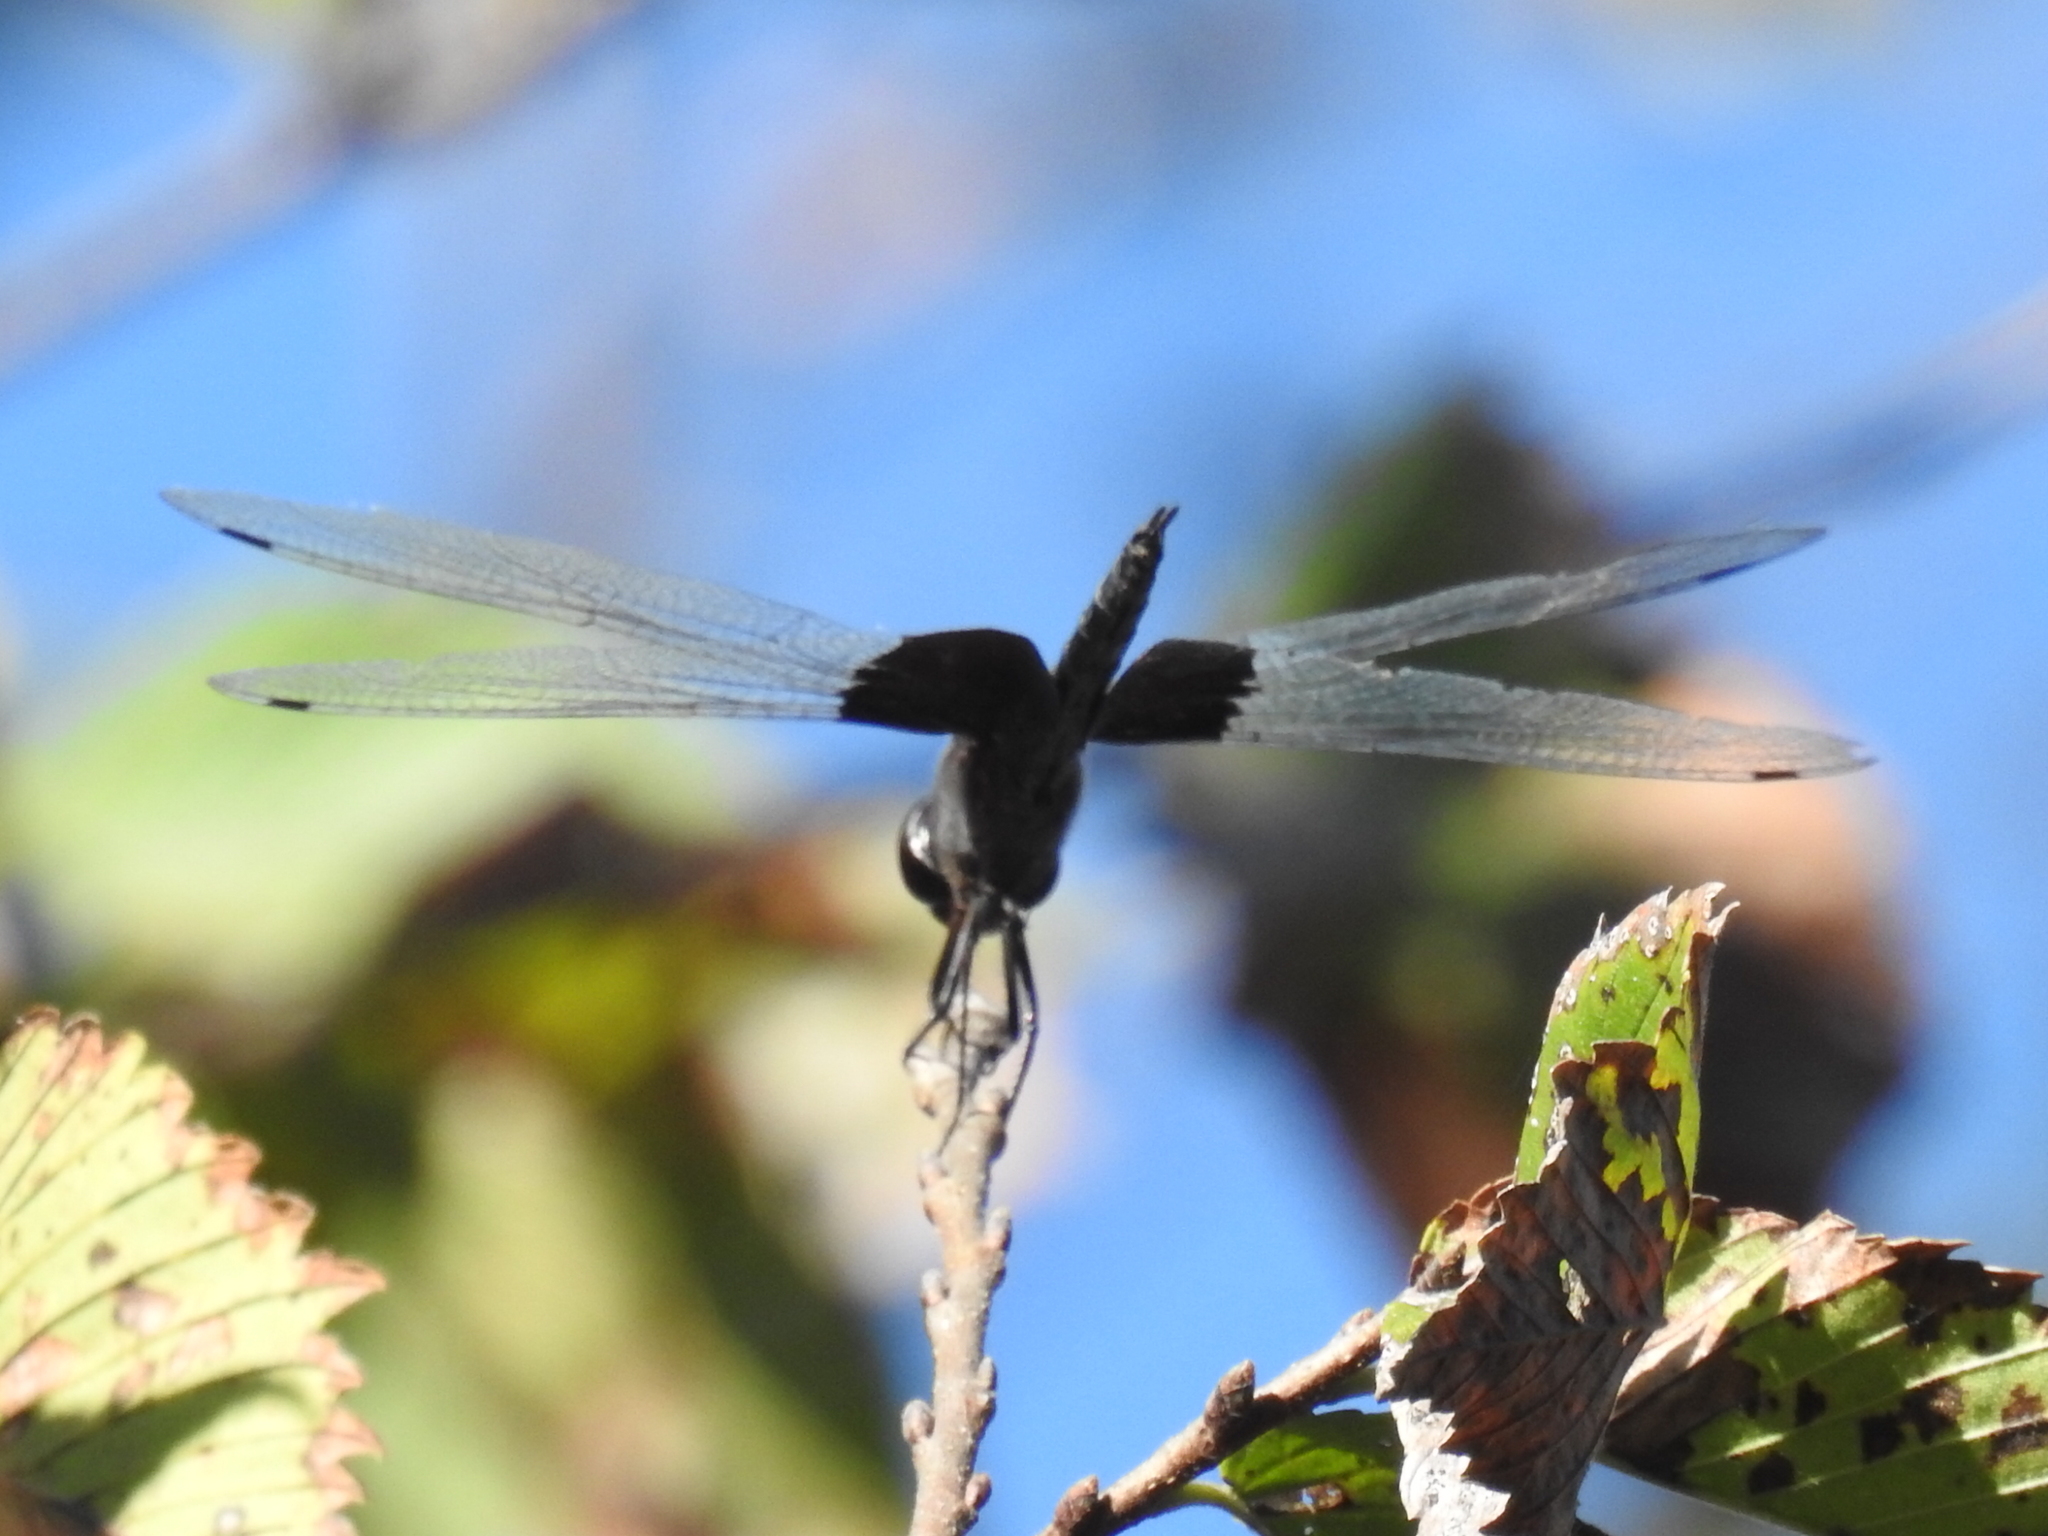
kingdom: Animalia
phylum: Arthropoda
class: Insecta
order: Odonata
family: Libellulidae
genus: Tramea
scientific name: Tramea lacerata
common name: Black saddlebags
